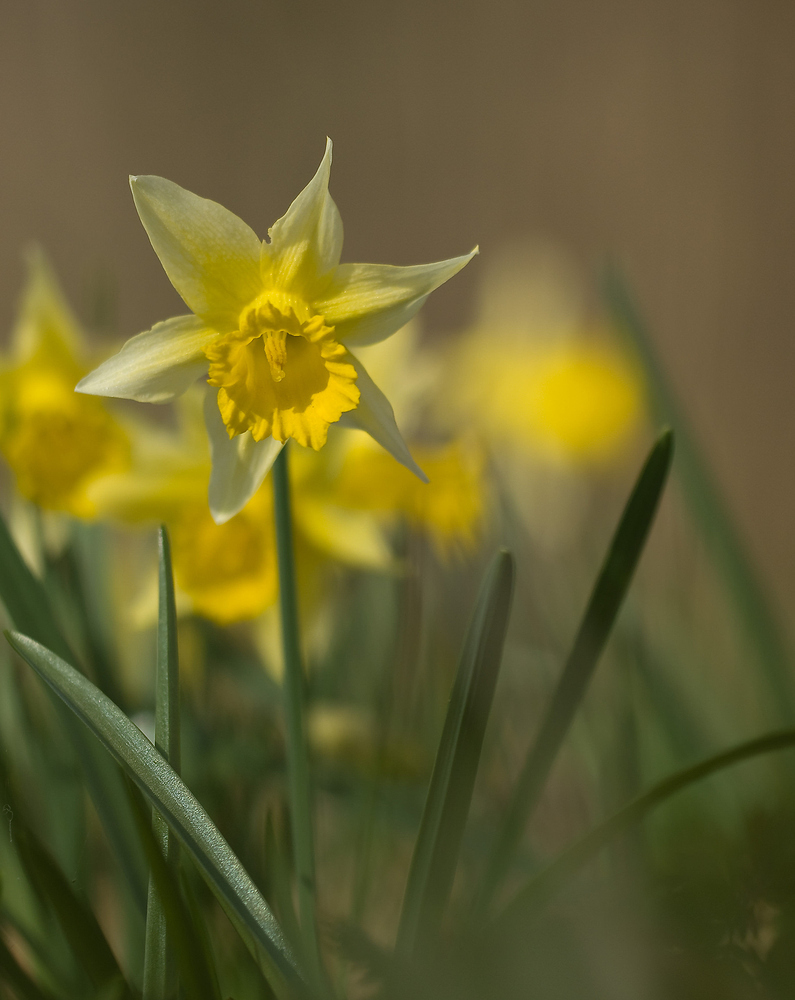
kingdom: Plantae
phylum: Tracheophyta
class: Liliopsida
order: Asparagales
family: Amaryllidaceae
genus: Narcissus
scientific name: Narcissus pseudonarcissus
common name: Daffodil
